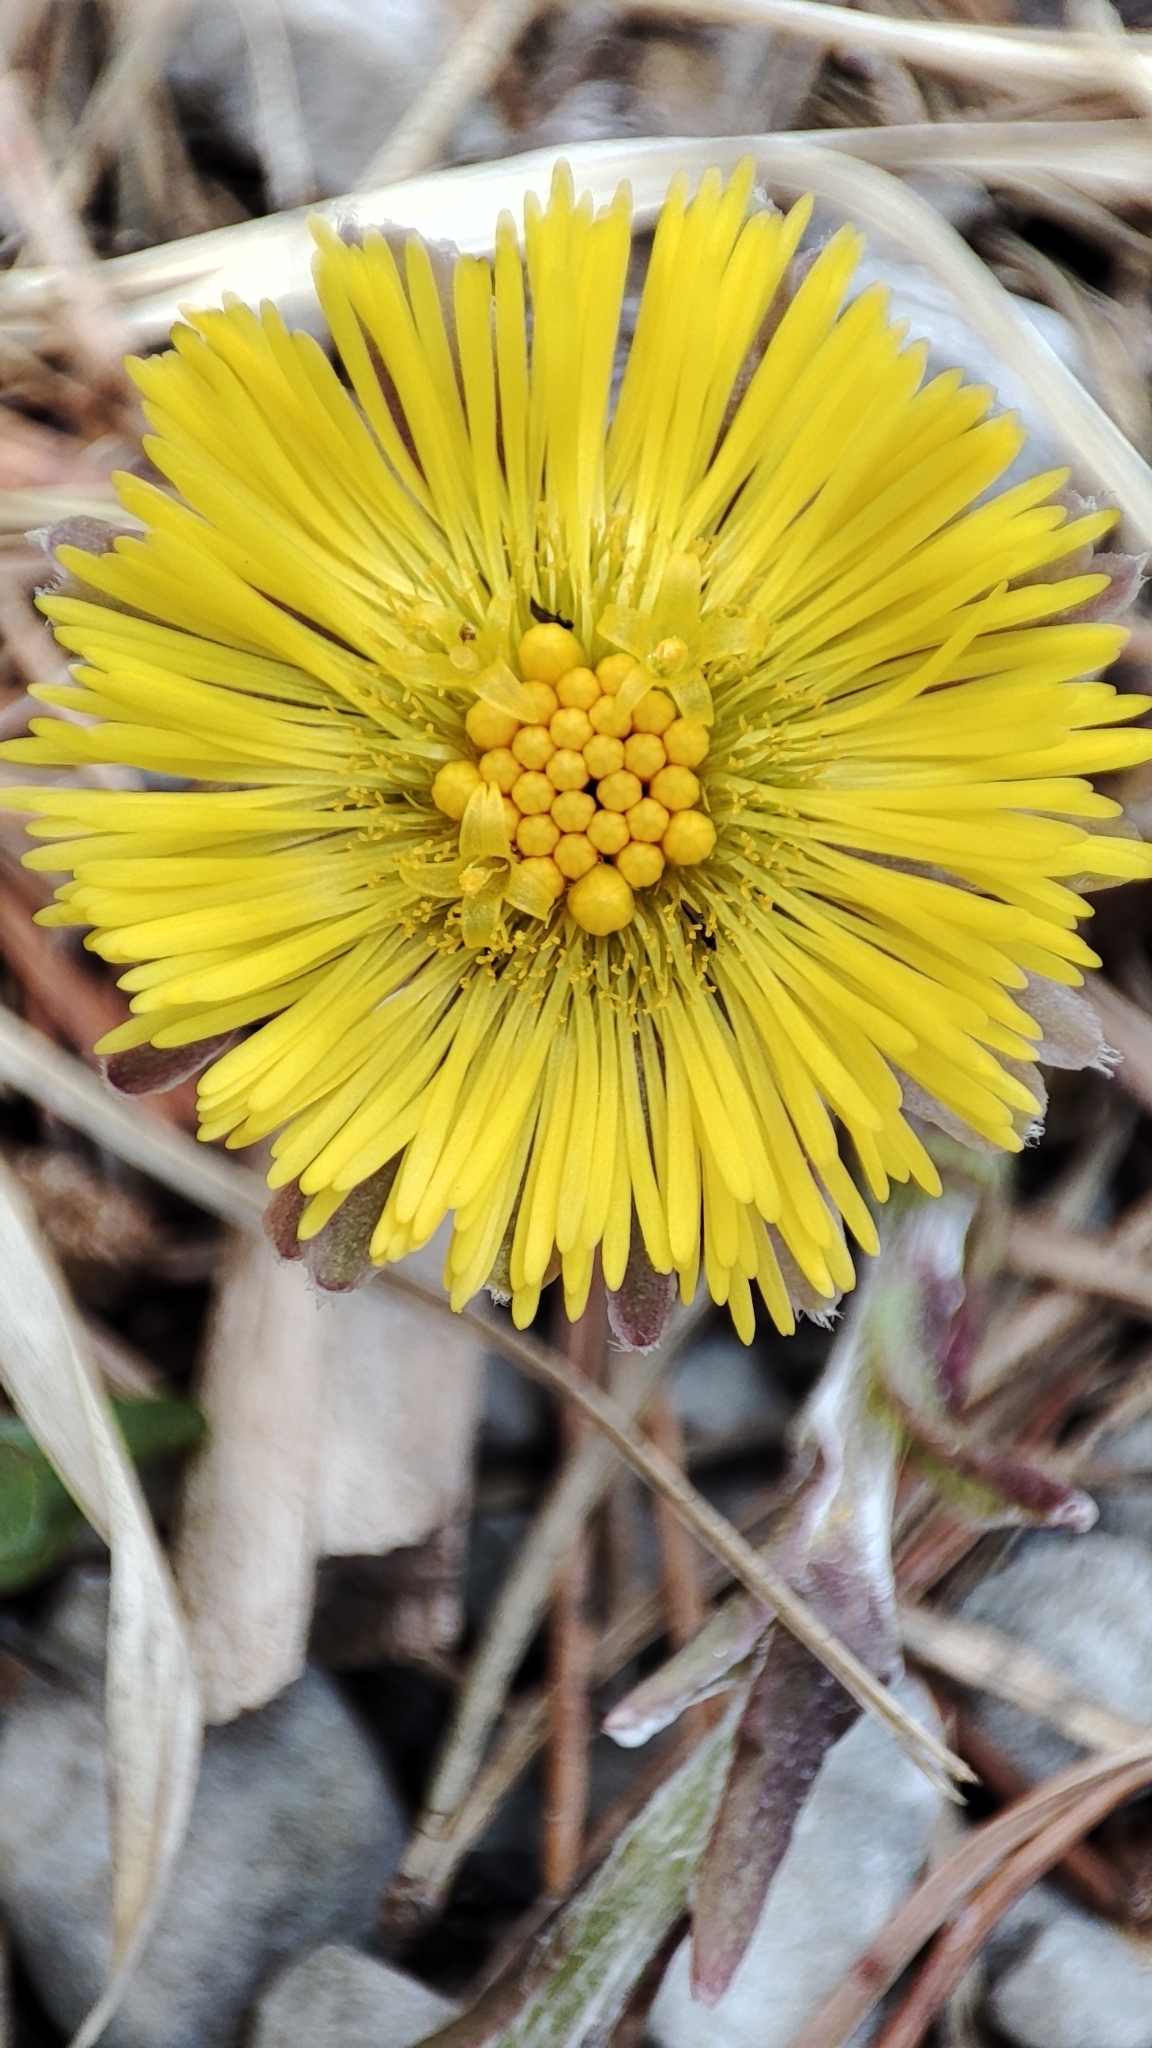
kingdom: Plantae
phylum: Tracheophyta
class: Magnoliopsida
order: Asterales
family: Asteraceae
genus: Tussilago
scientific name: Tussilago farfara
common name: Coltsfoot
